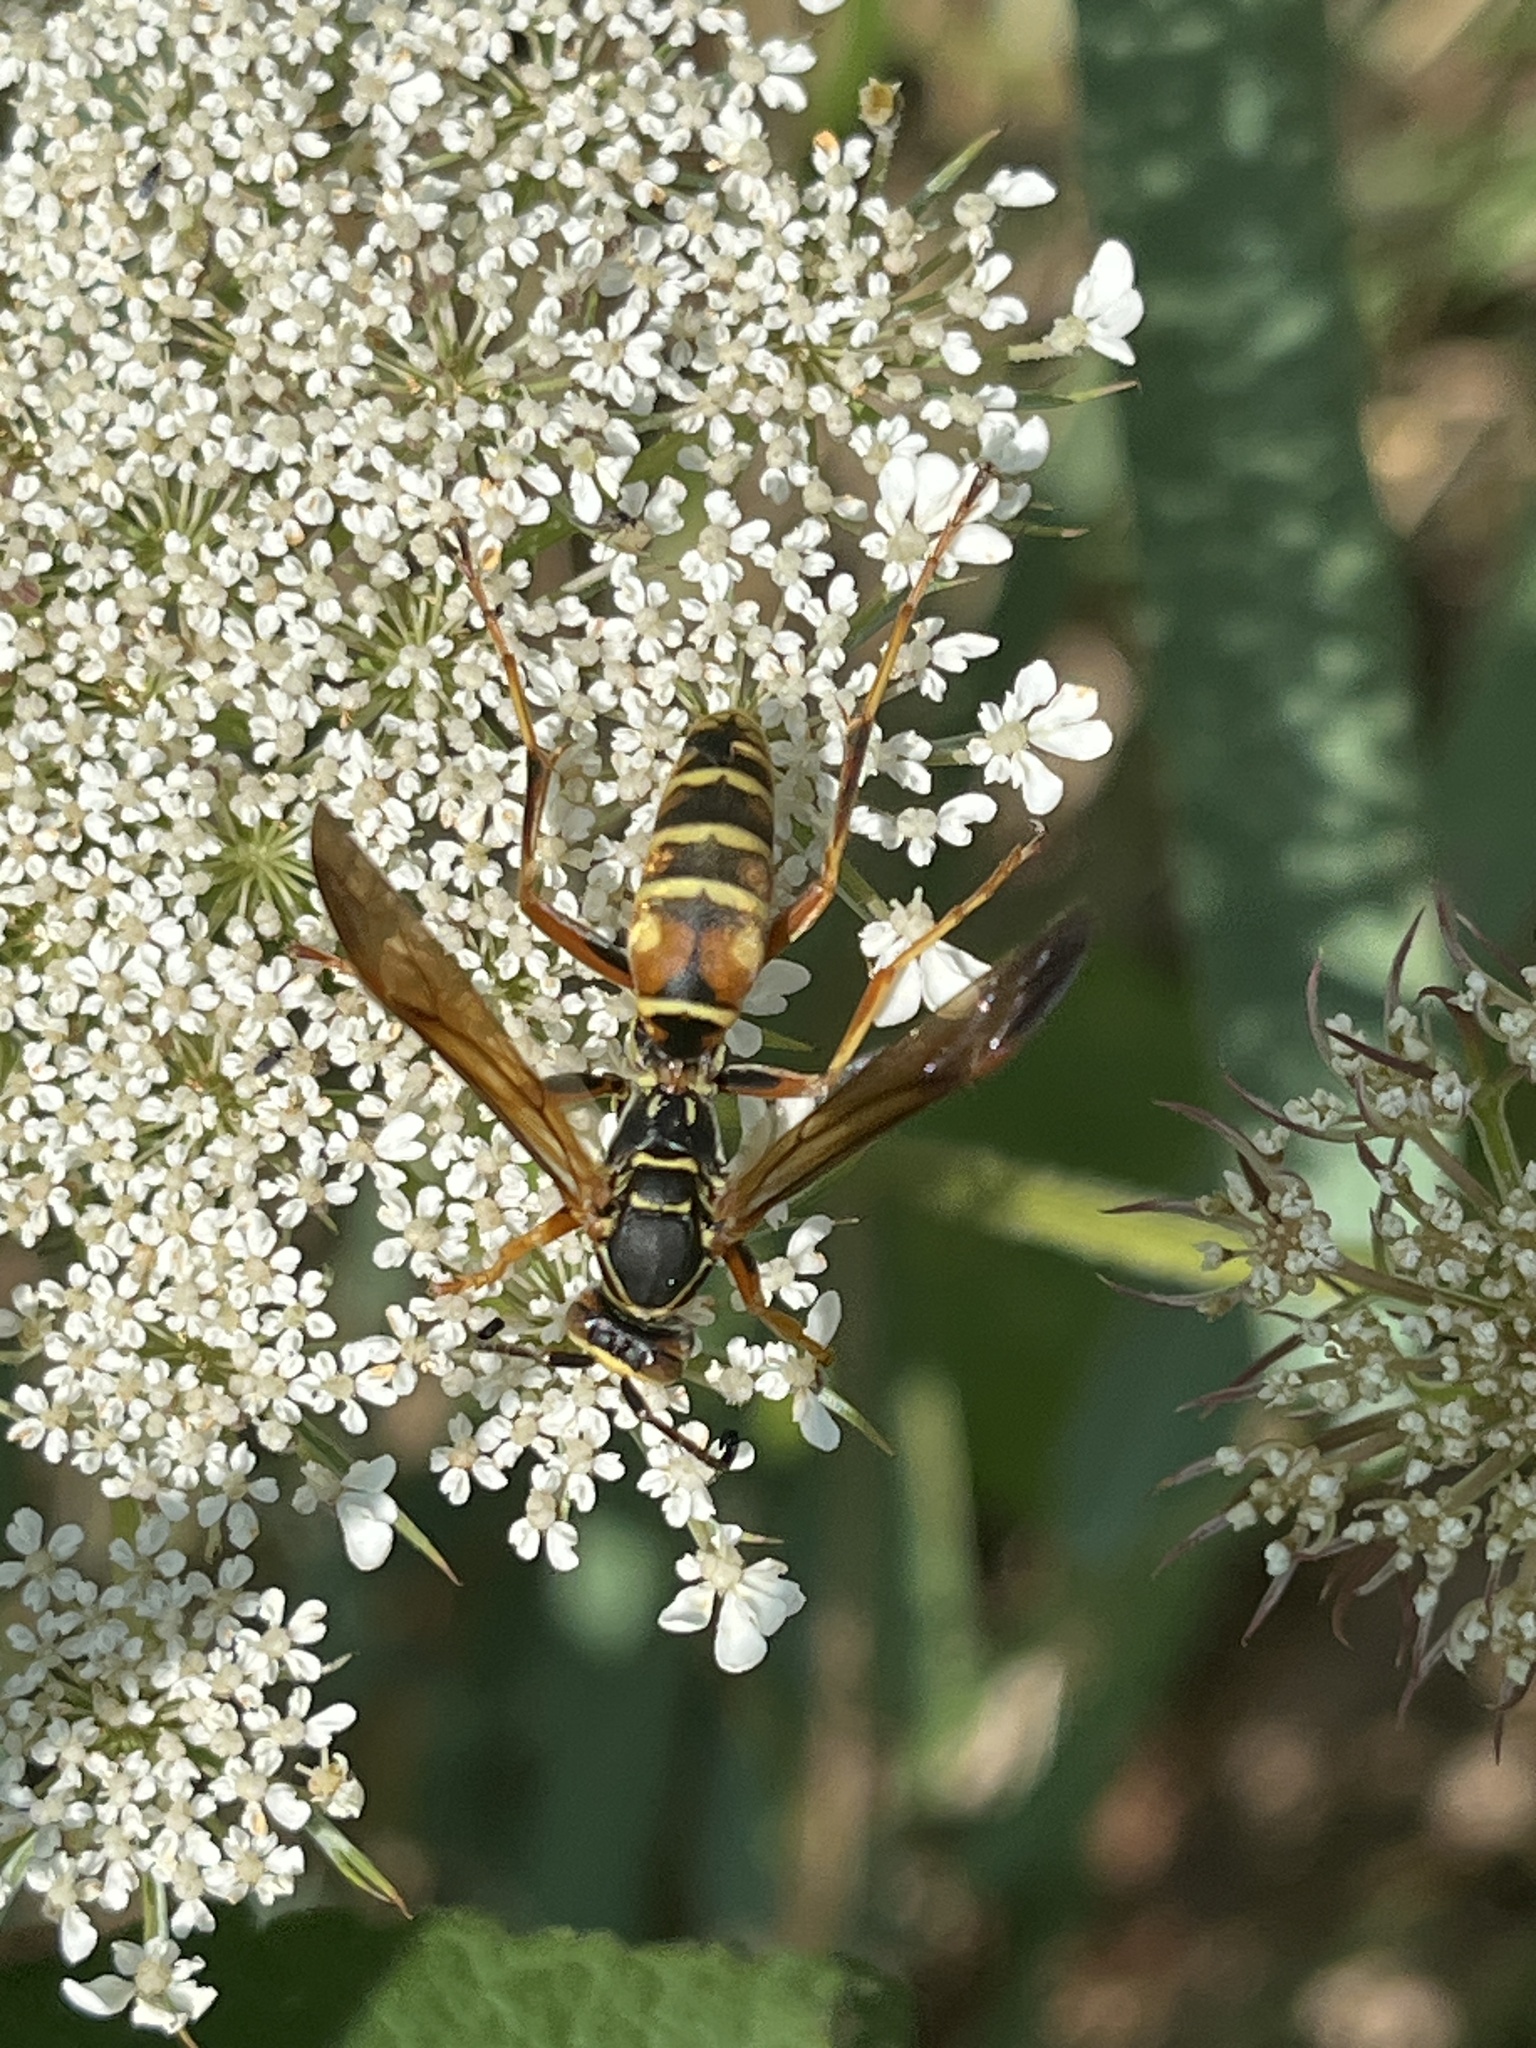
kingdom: Animalia
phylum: Arthropoda
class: Insecta
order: Hymenoptera
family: Eumenidae
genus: Polistes
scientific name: Polistes fuscatus
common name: Dark paper wasp
